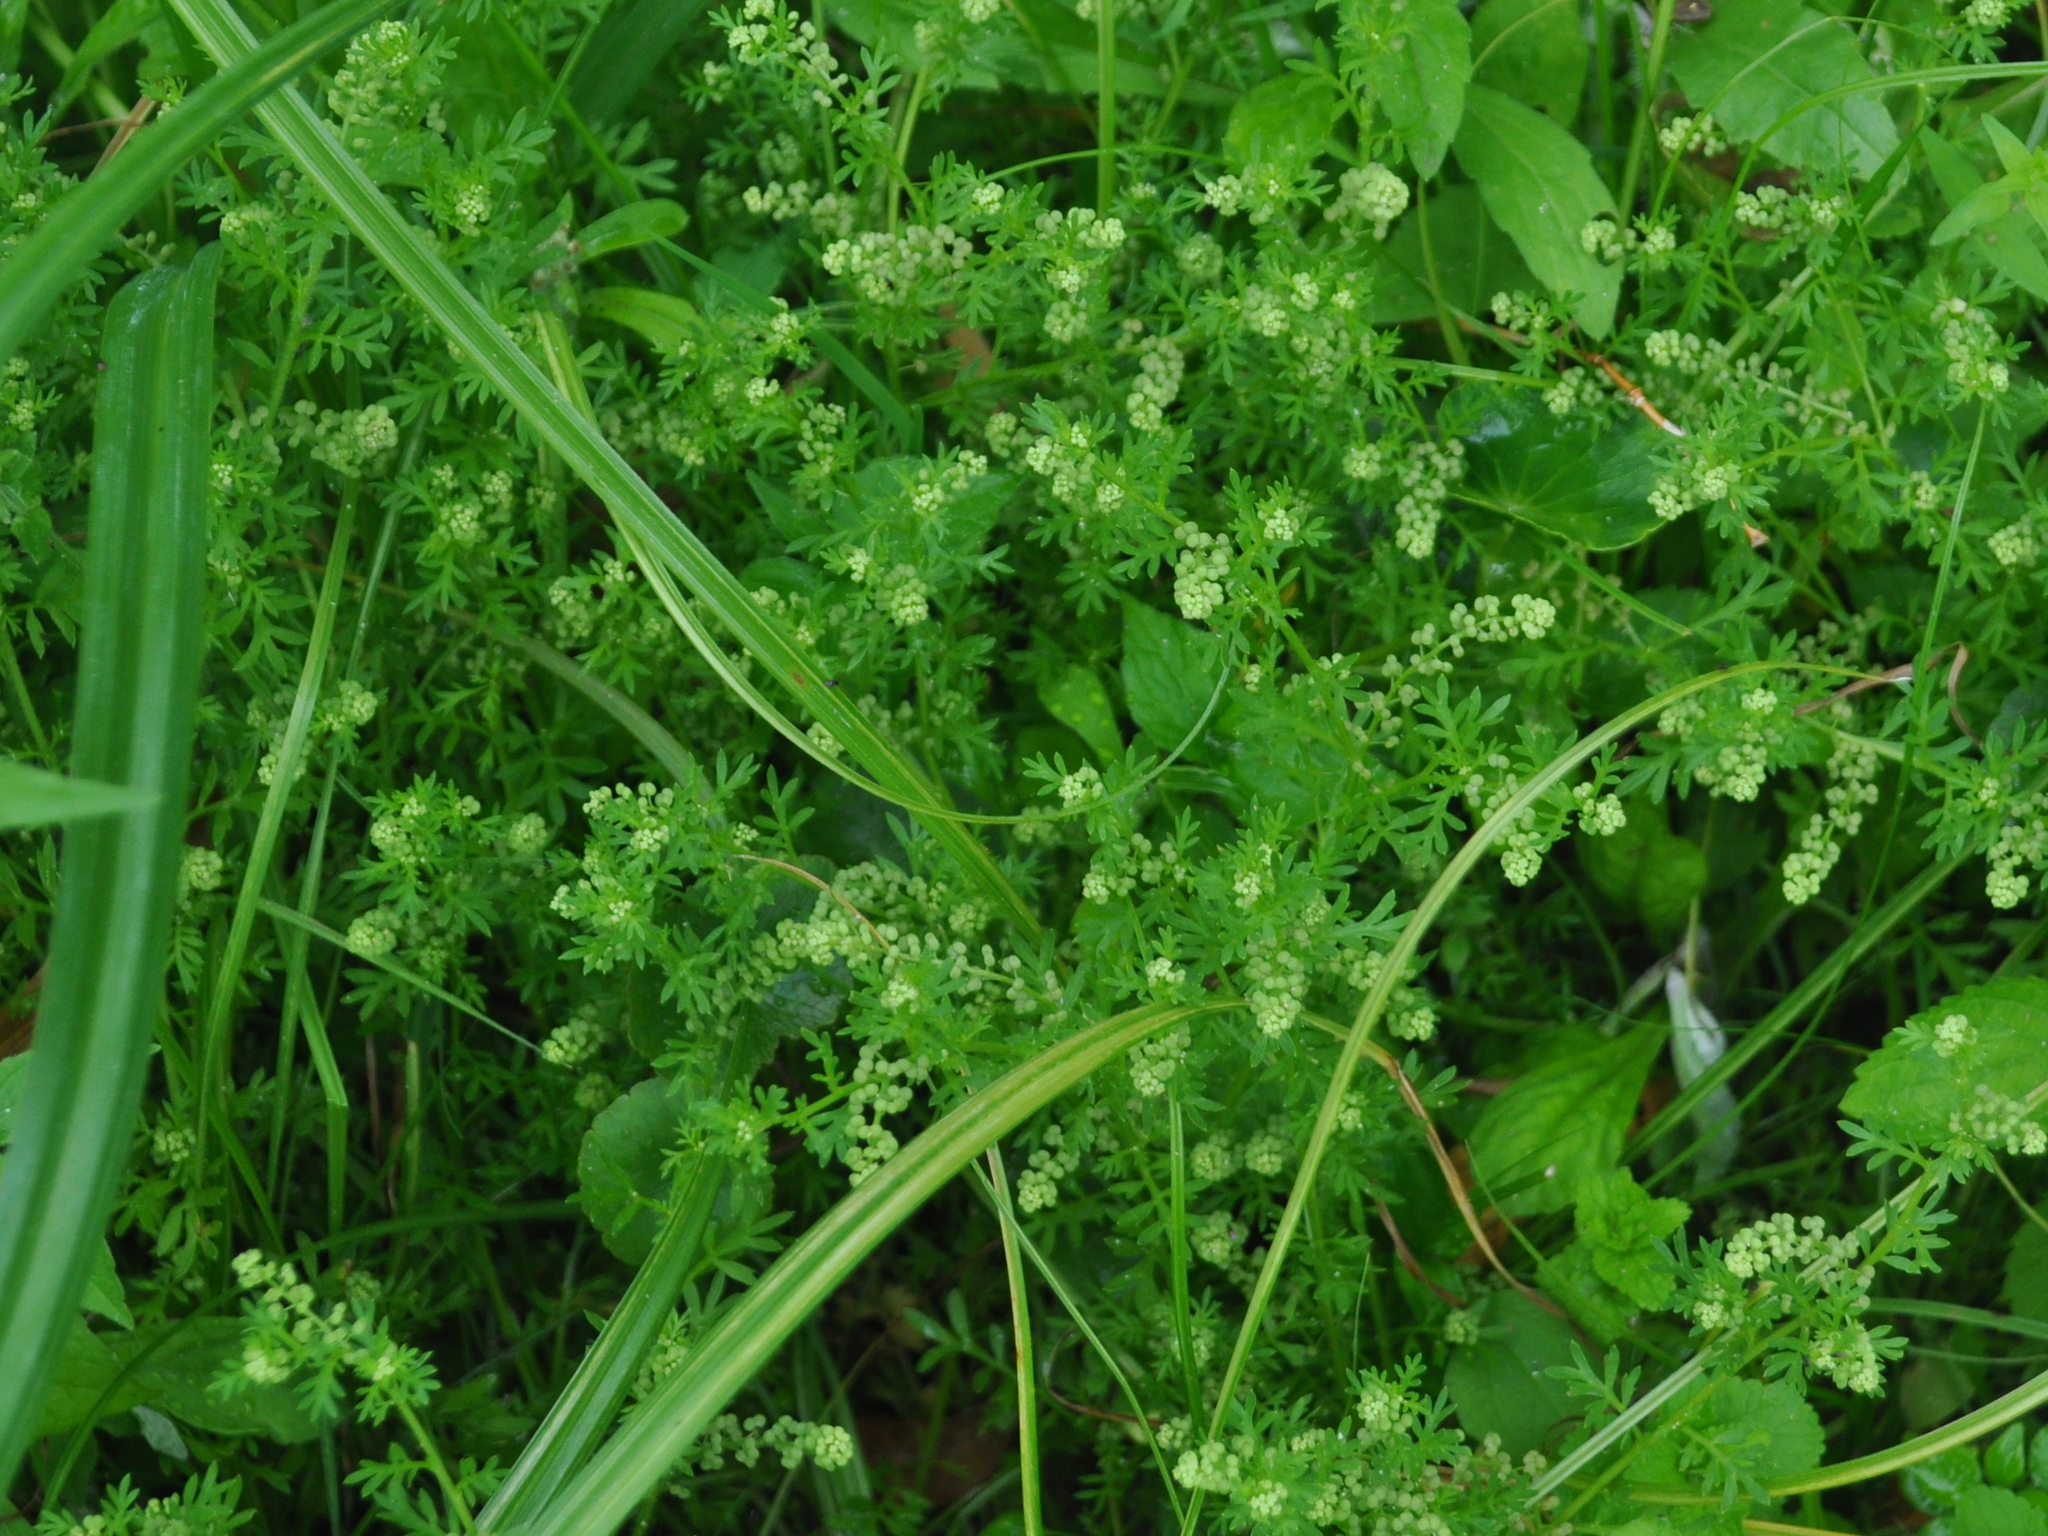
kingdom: Plantae
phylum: Tracheophyta
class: Magnoliopsida
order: Brassicales
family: Brassicaceae
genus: Lepidium
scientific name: Lepidium didymum
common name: Lesser swinecress
